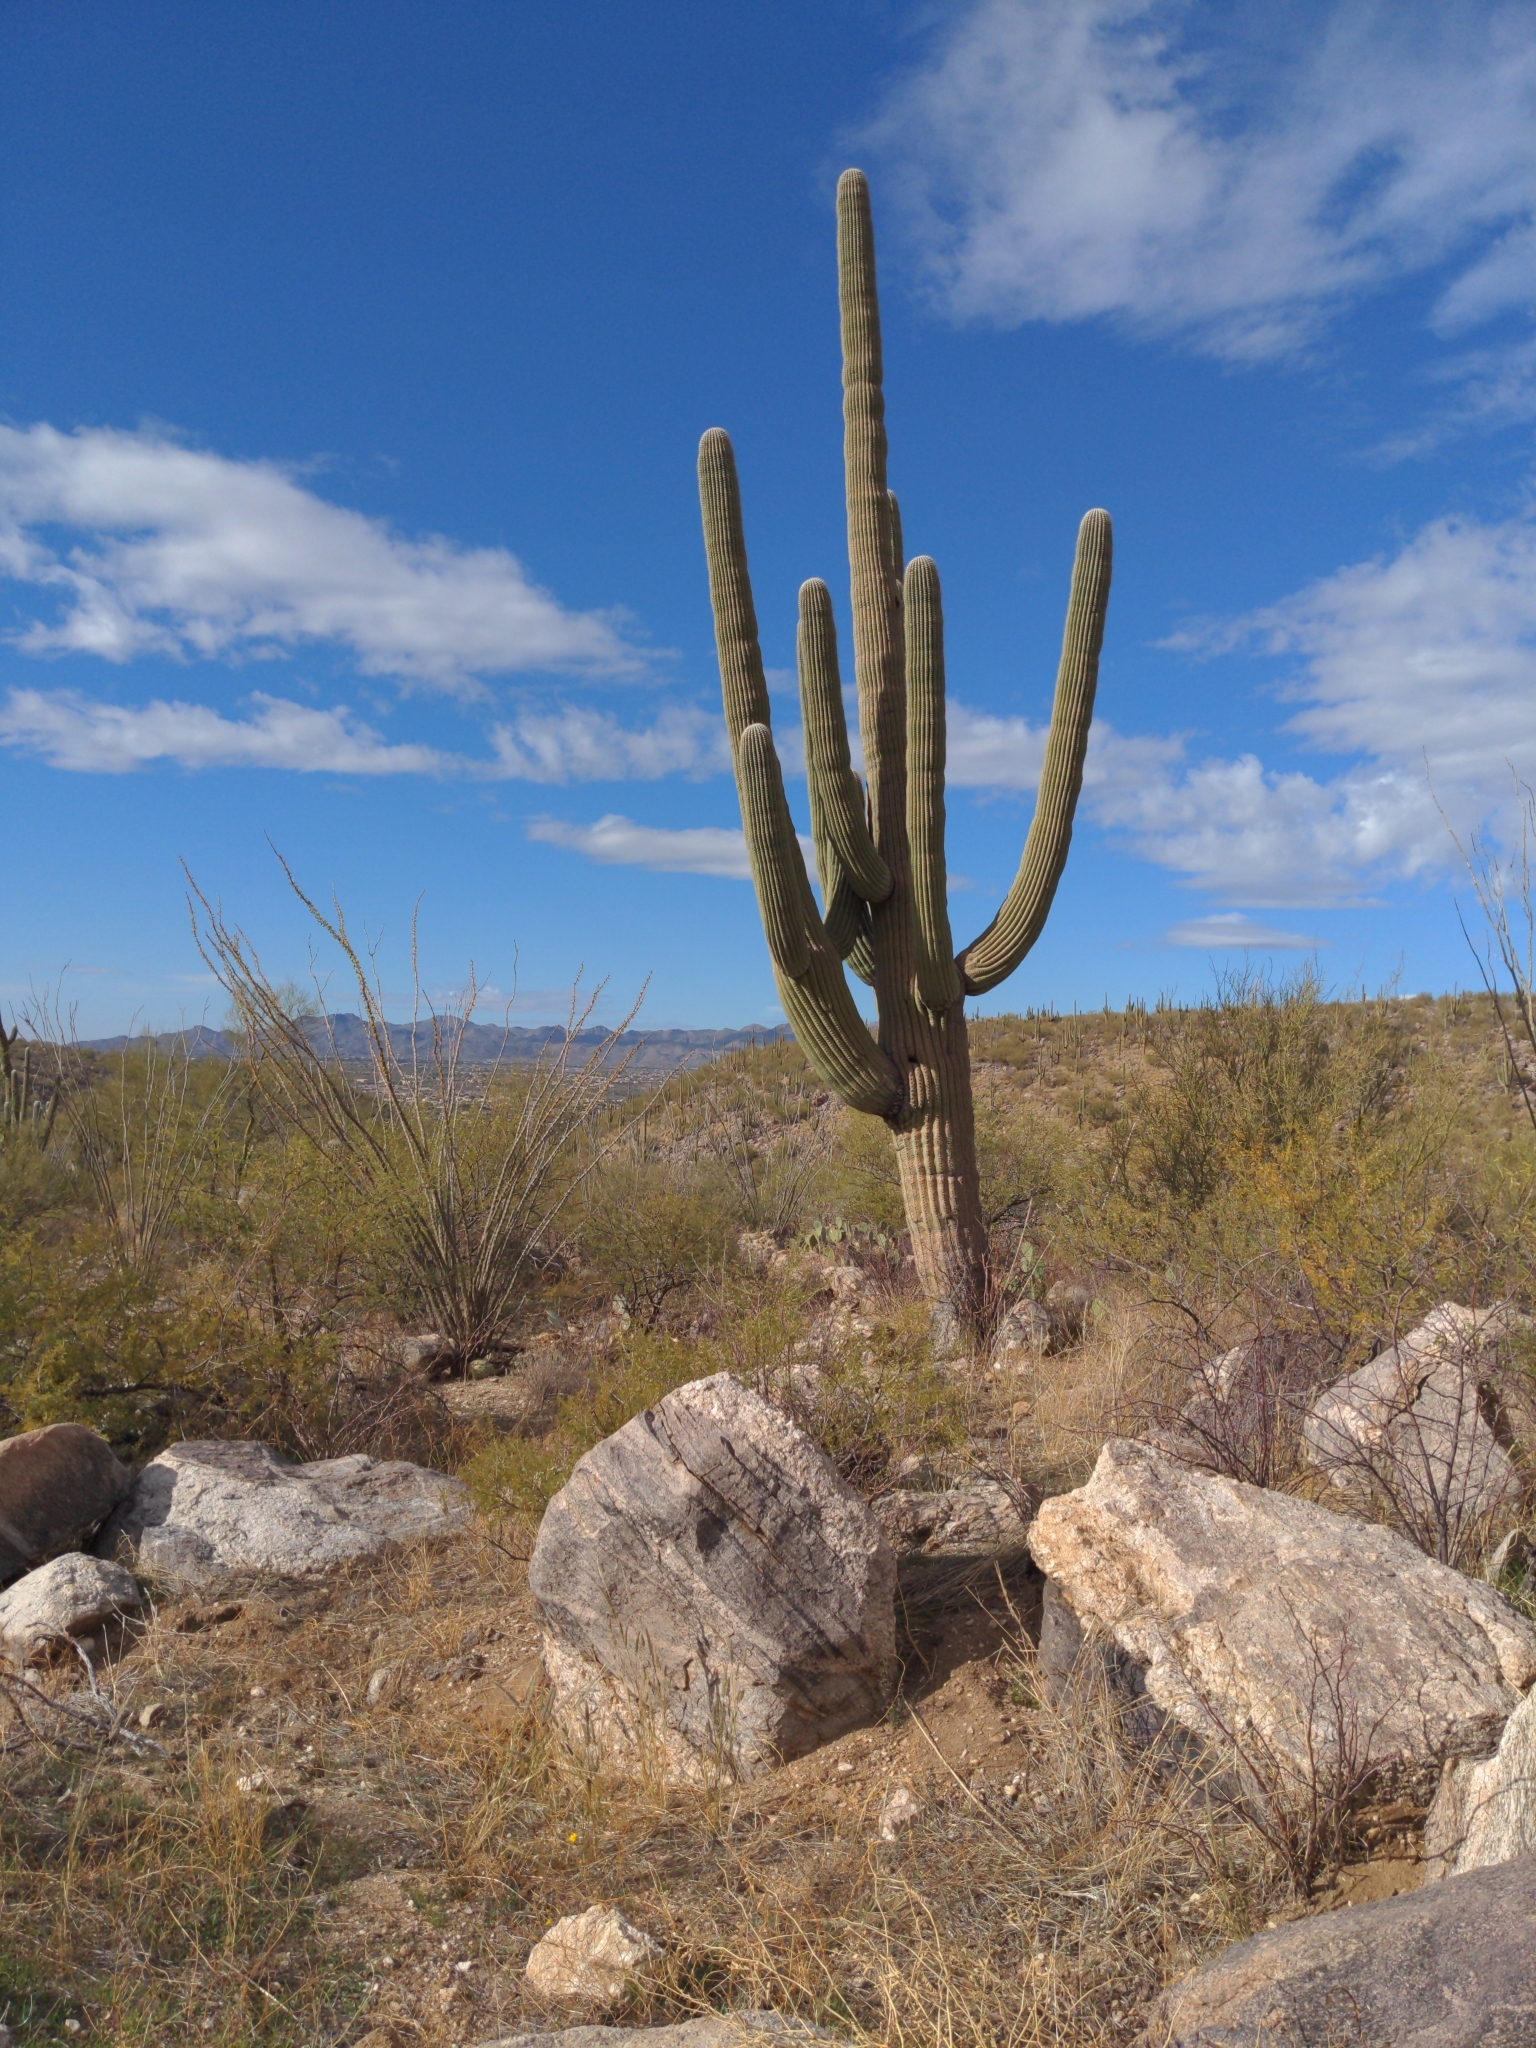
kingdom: Plantae
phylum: Tracheophyta
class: Magnoliopsida
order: Caryophyllales
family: Cactaceae
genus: Carnegiea
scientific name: Carnegiea gigantea
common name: Saguaro
